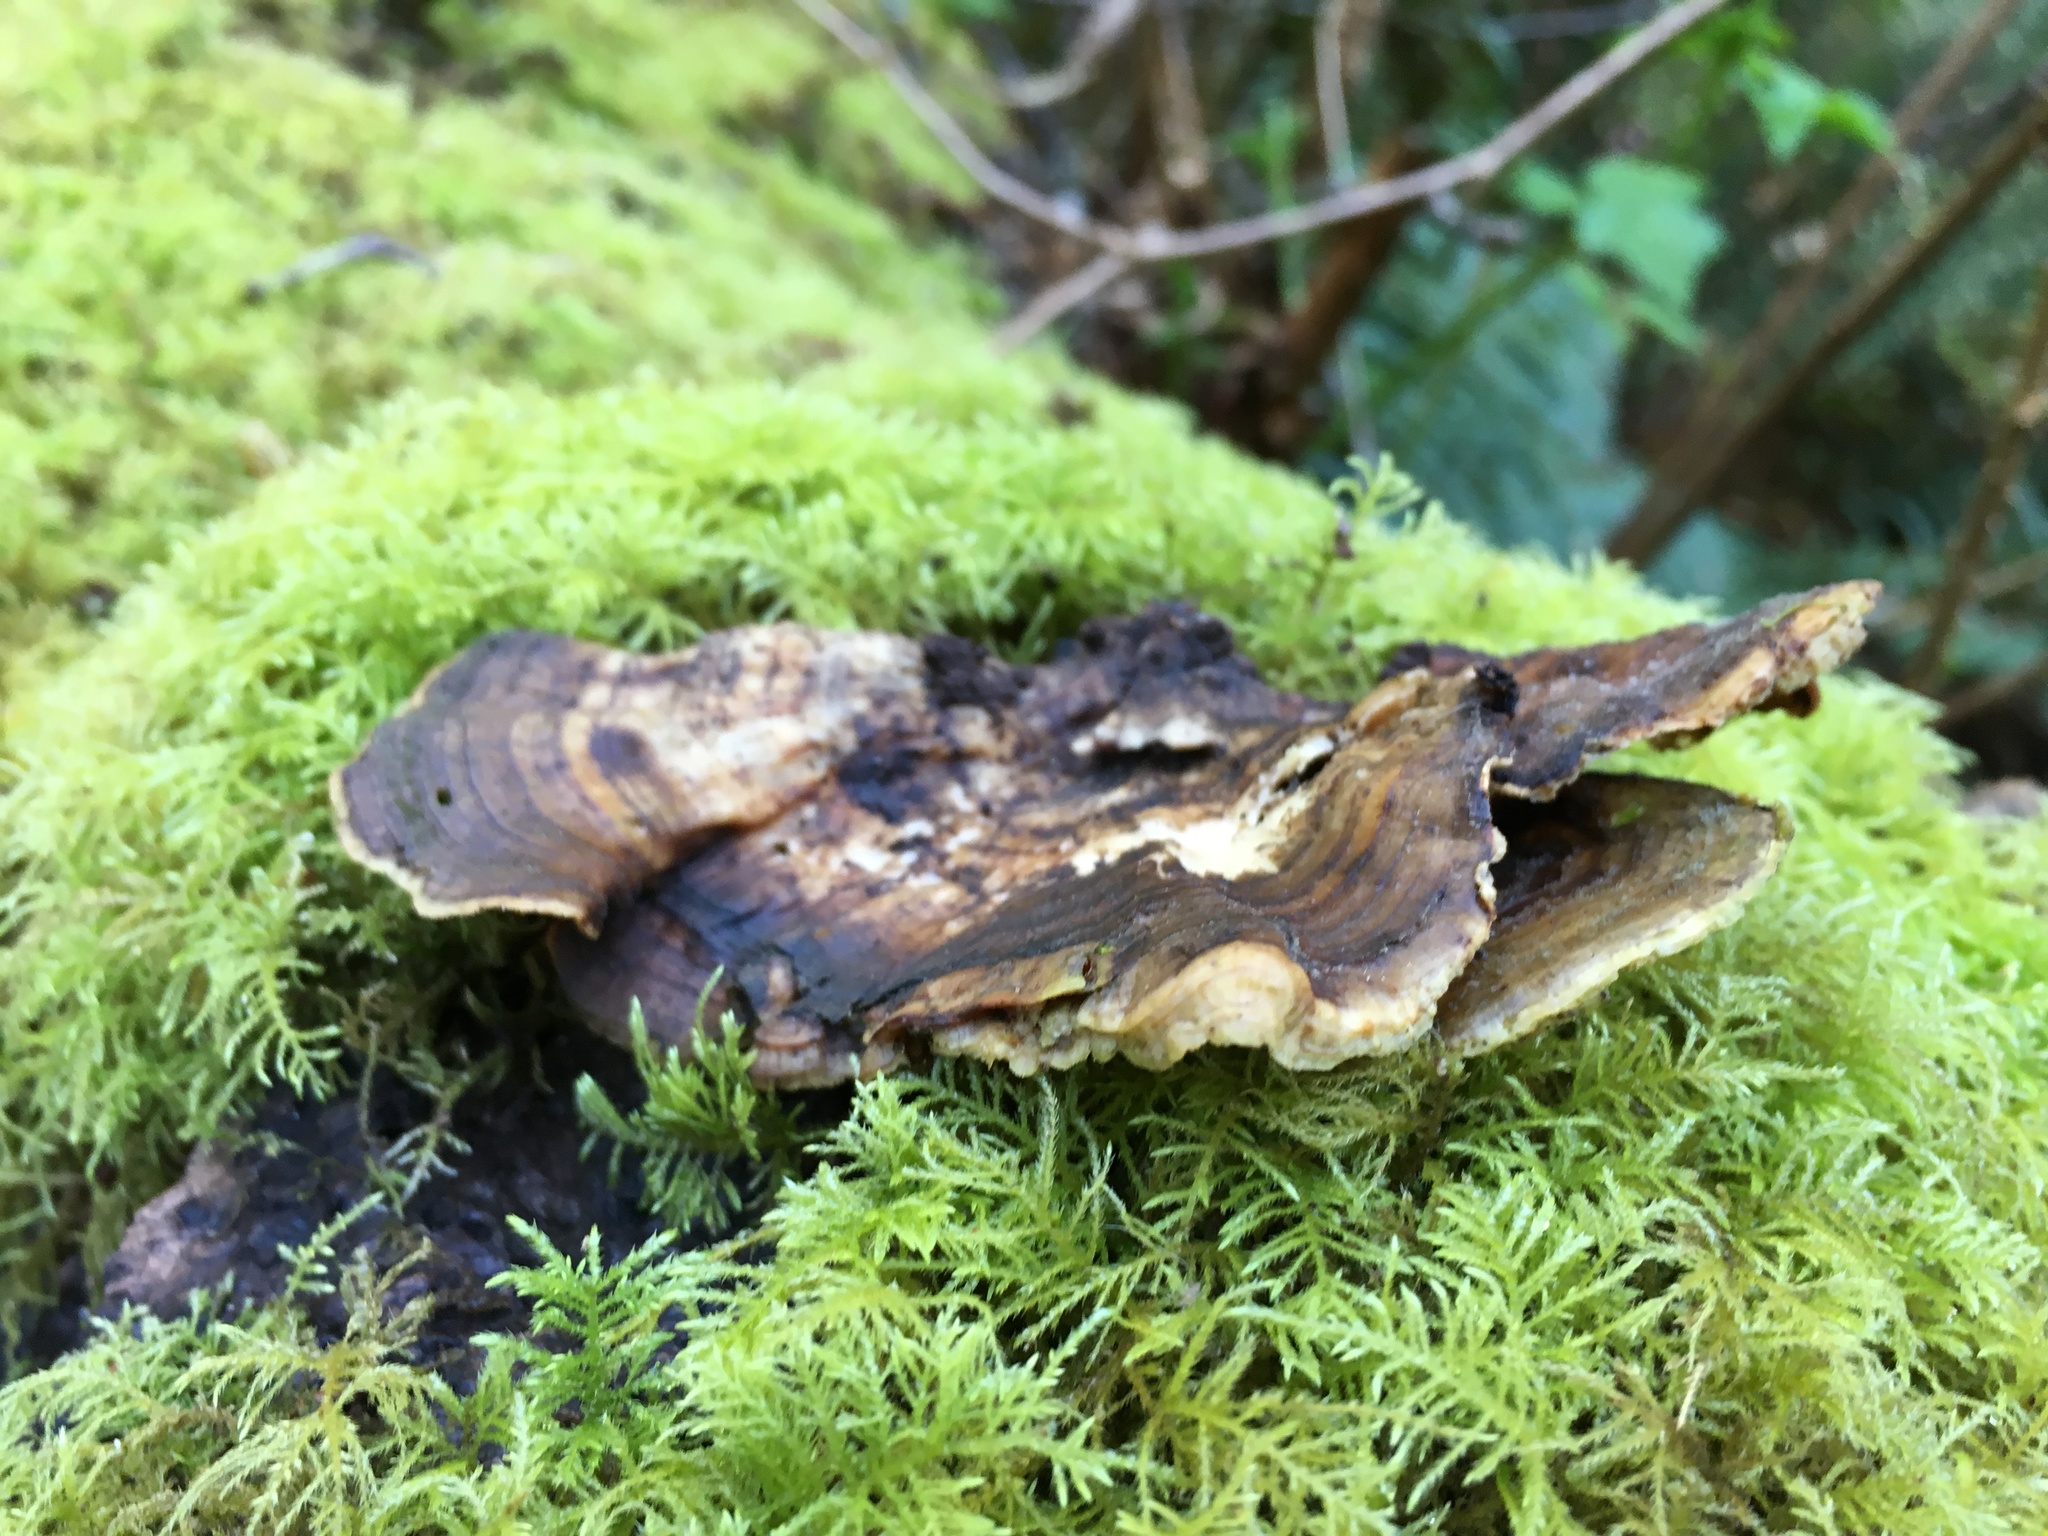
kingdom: Fungi
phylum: Basidiomycota
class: Agaricomycetes
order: Polyporales
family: Polyporaceae
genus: Trametes
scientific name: Trametes versicolor
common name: Turkeytail
